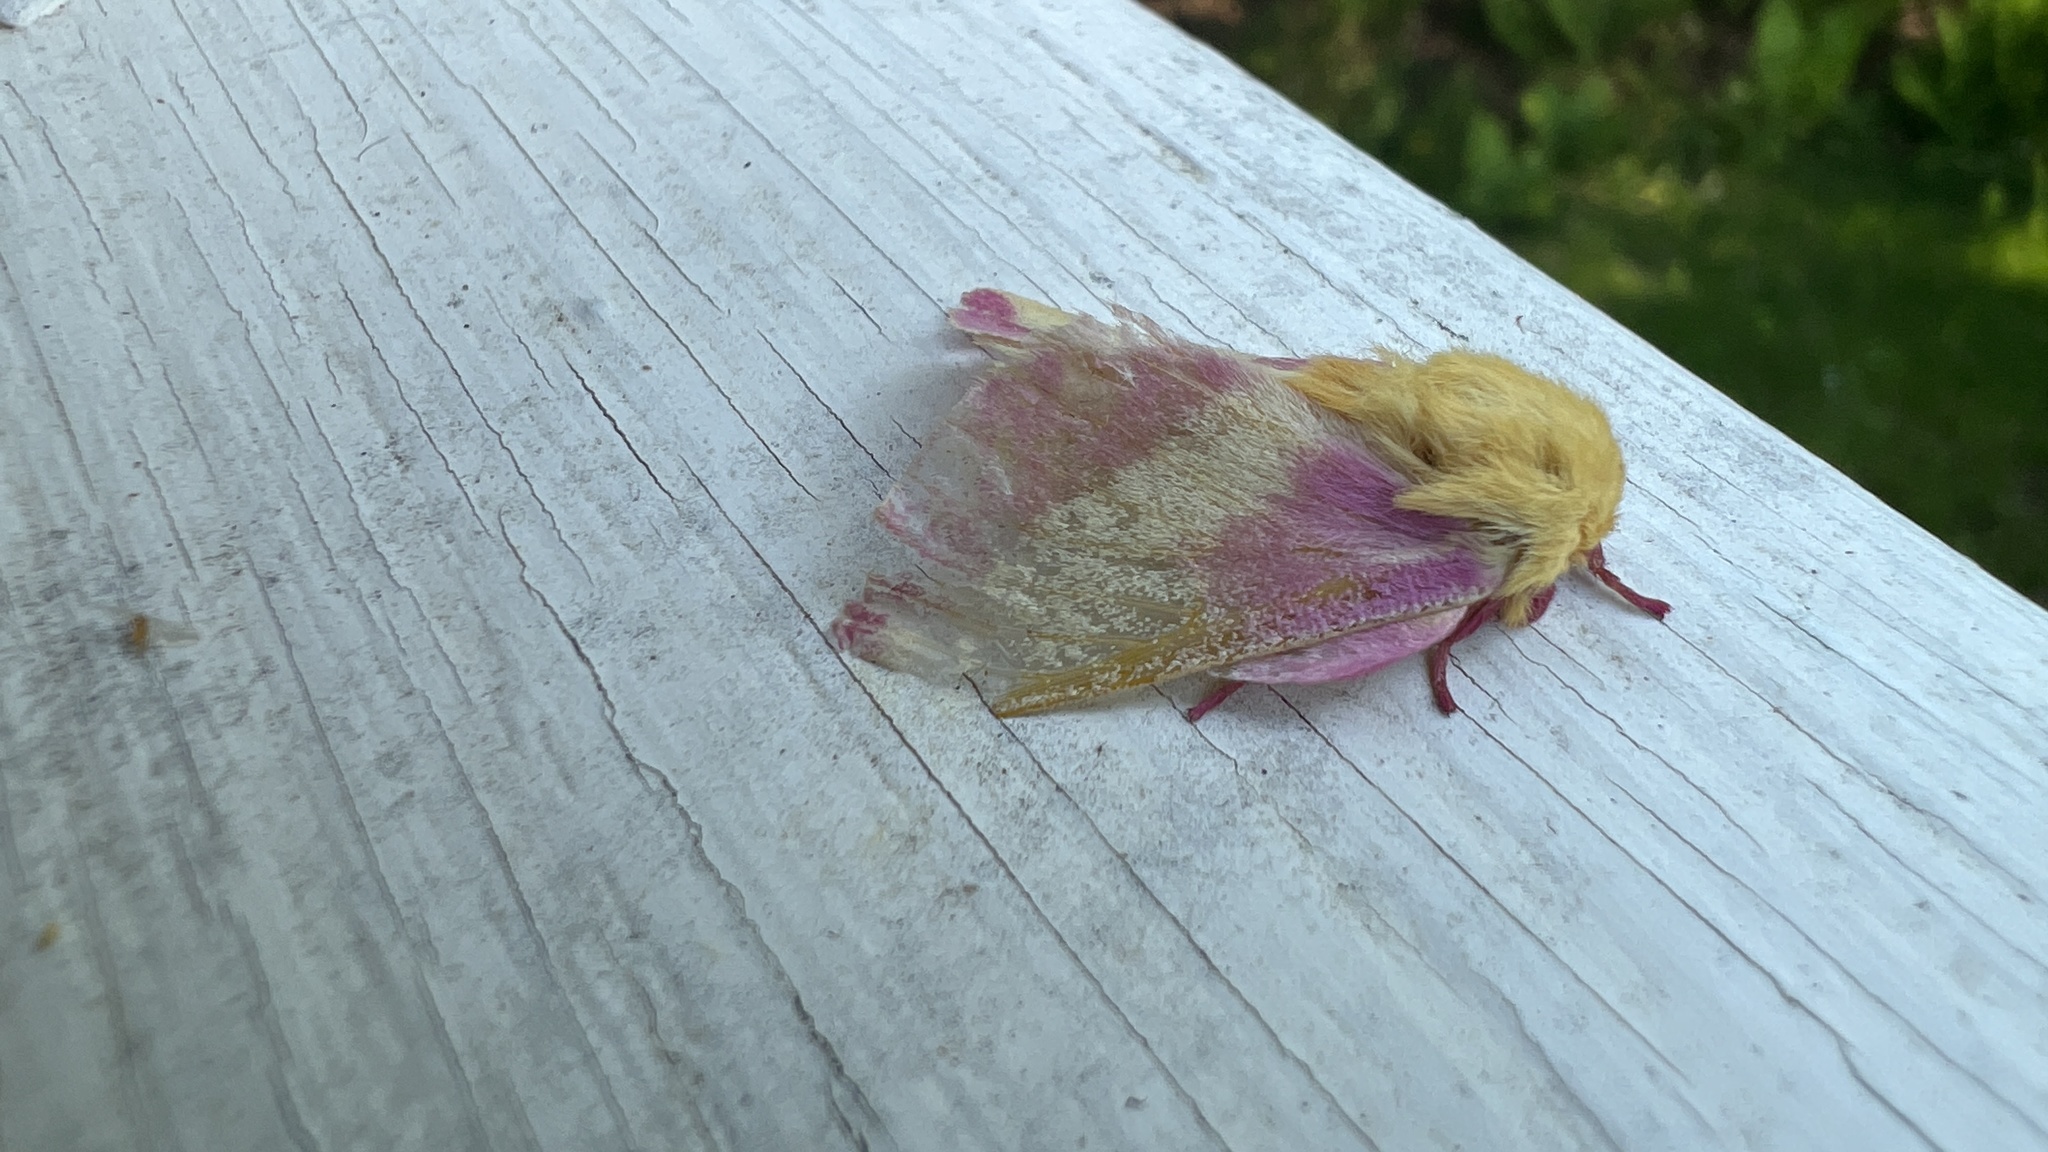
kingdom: Animalia
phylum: Arthropoda
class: Insecta
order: Lepidoptera
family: Saturniidae
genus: Dryocampa
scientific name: Dryocampa rubicunda
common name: Rosy maple moth
